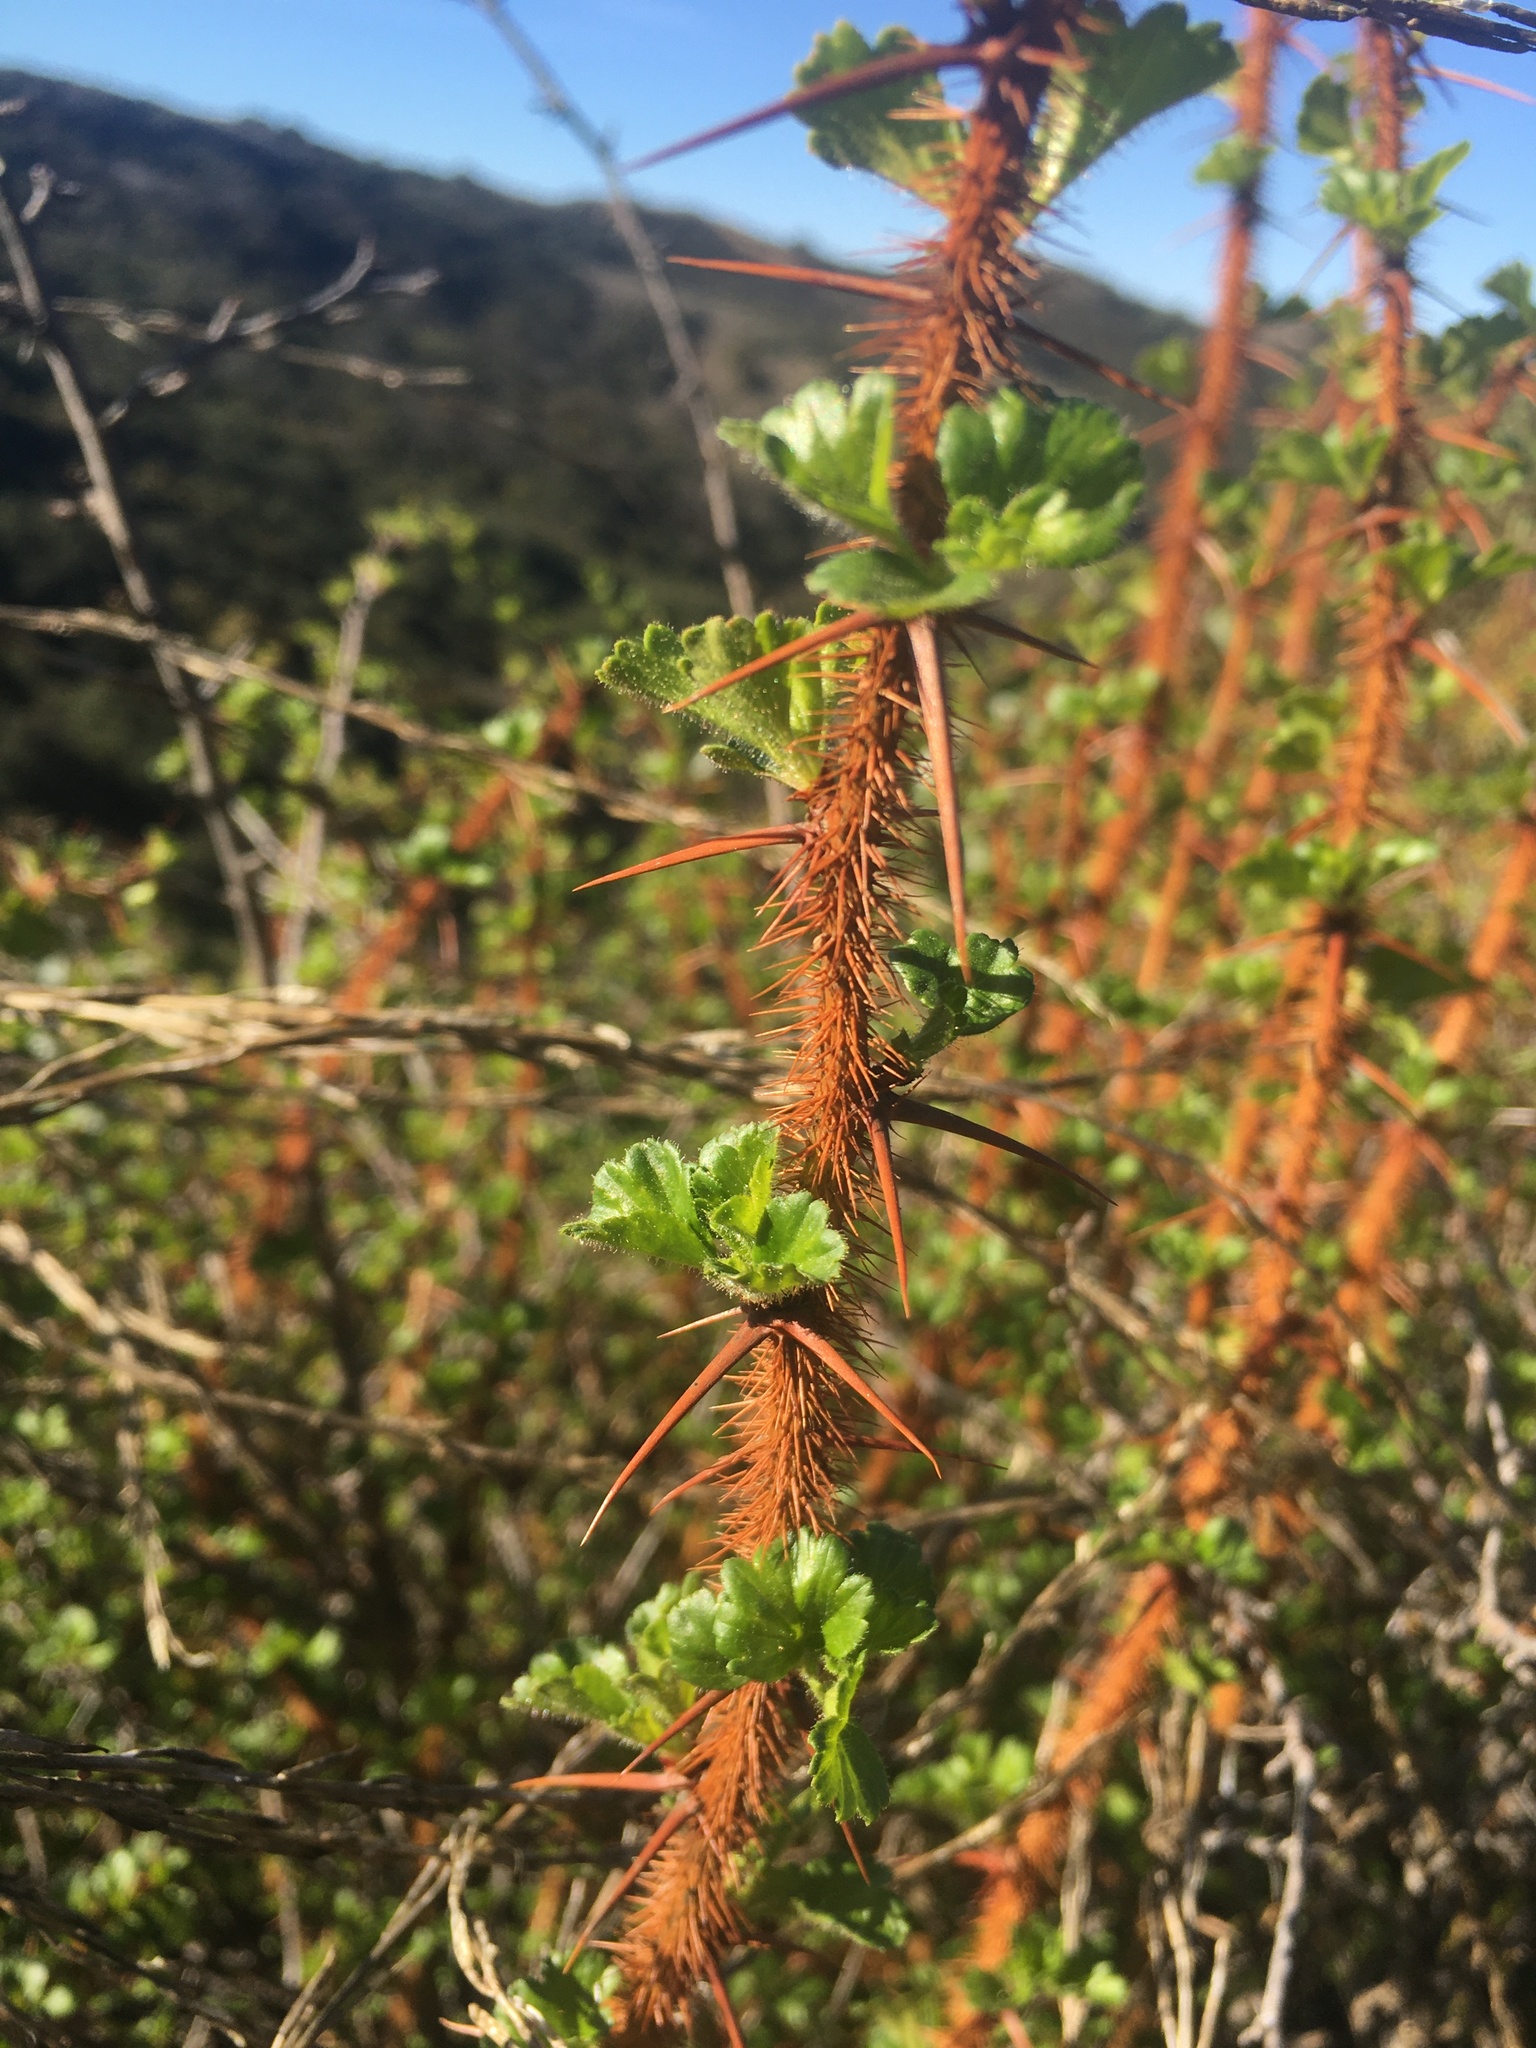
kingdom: Plantae
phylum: Tracheophyta
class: Magnoliopsida
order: Saxifragales
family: Grossulariaceae
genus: Ribes
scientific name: Ribes speciosum
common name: Fuchsia-flower gooseberry
